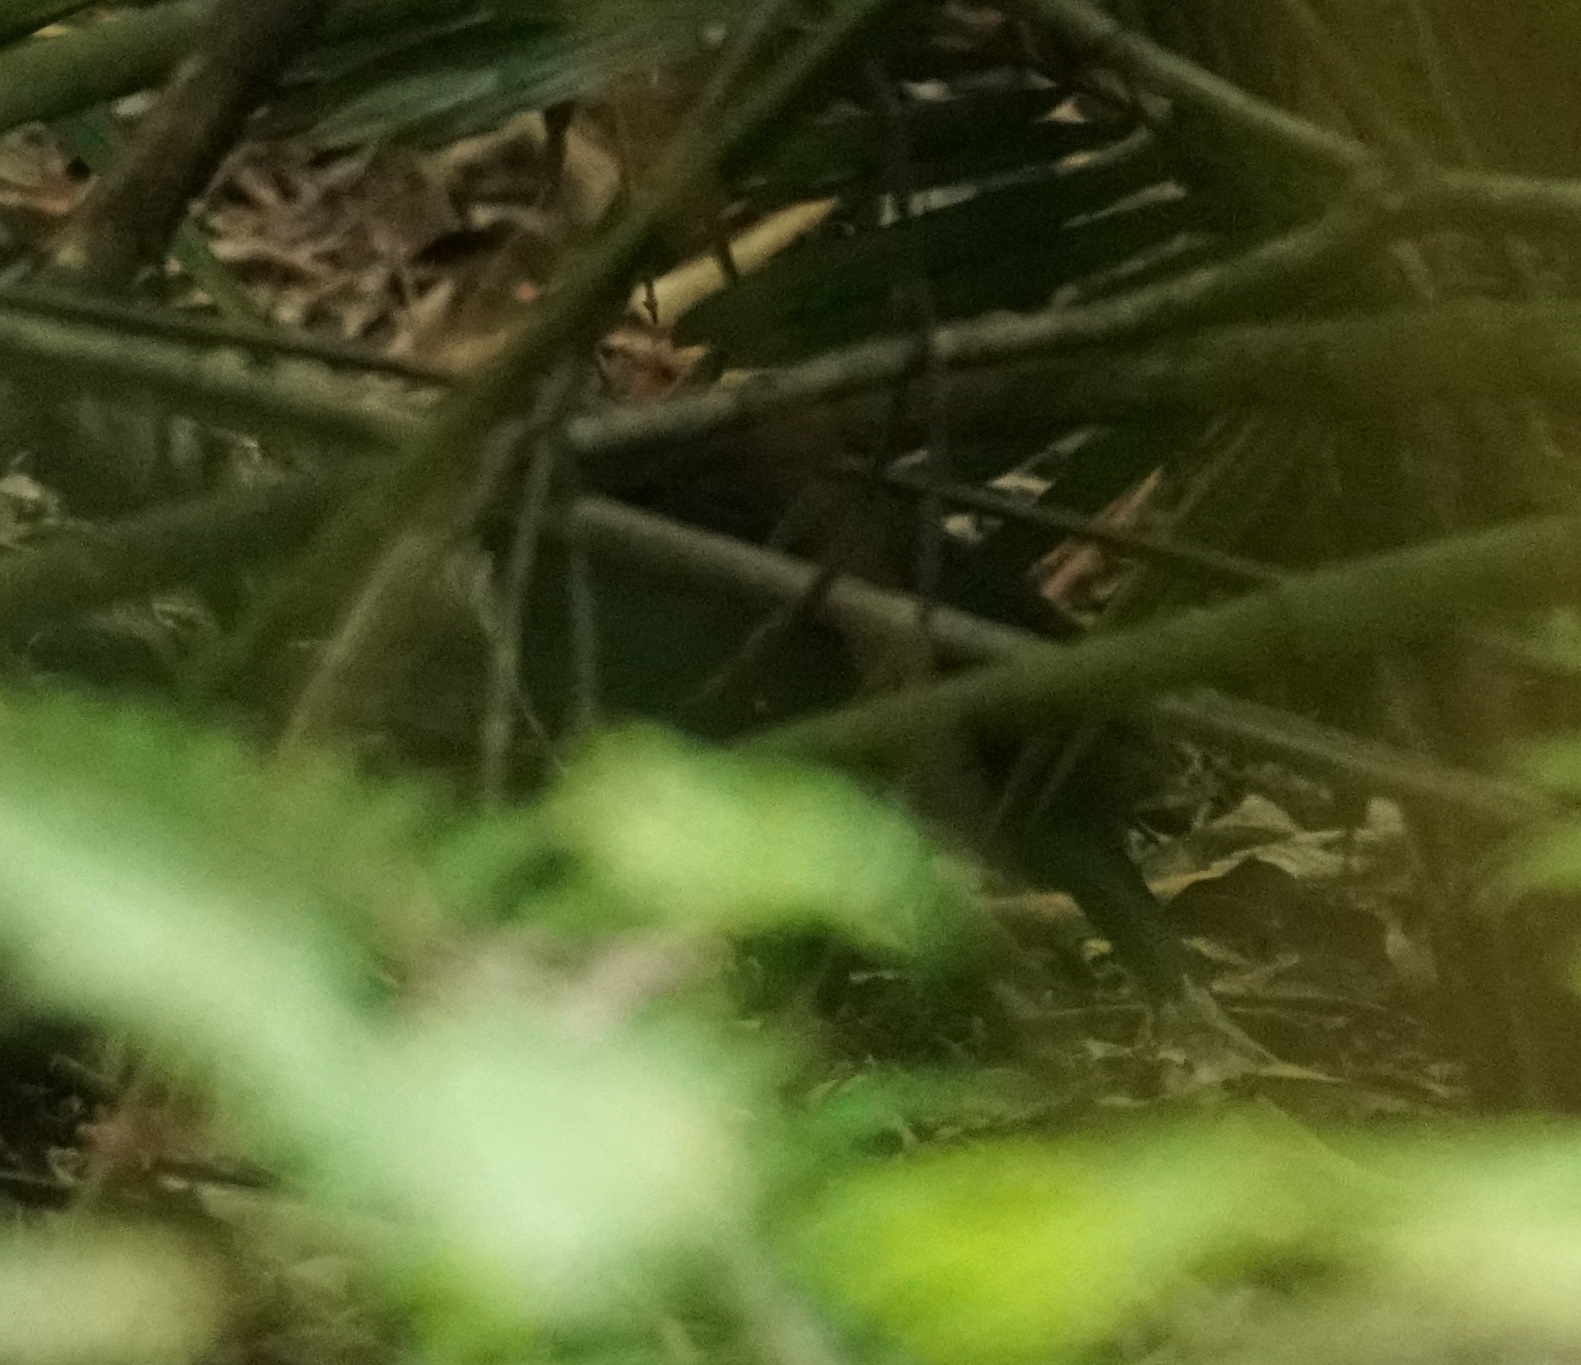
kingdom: Animalia
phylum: Chordata
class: Aves
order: Passeriformes
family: Orthonychidae
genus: Orthonyx
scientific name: Orthonyx spaldingii
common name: Chowchilla
